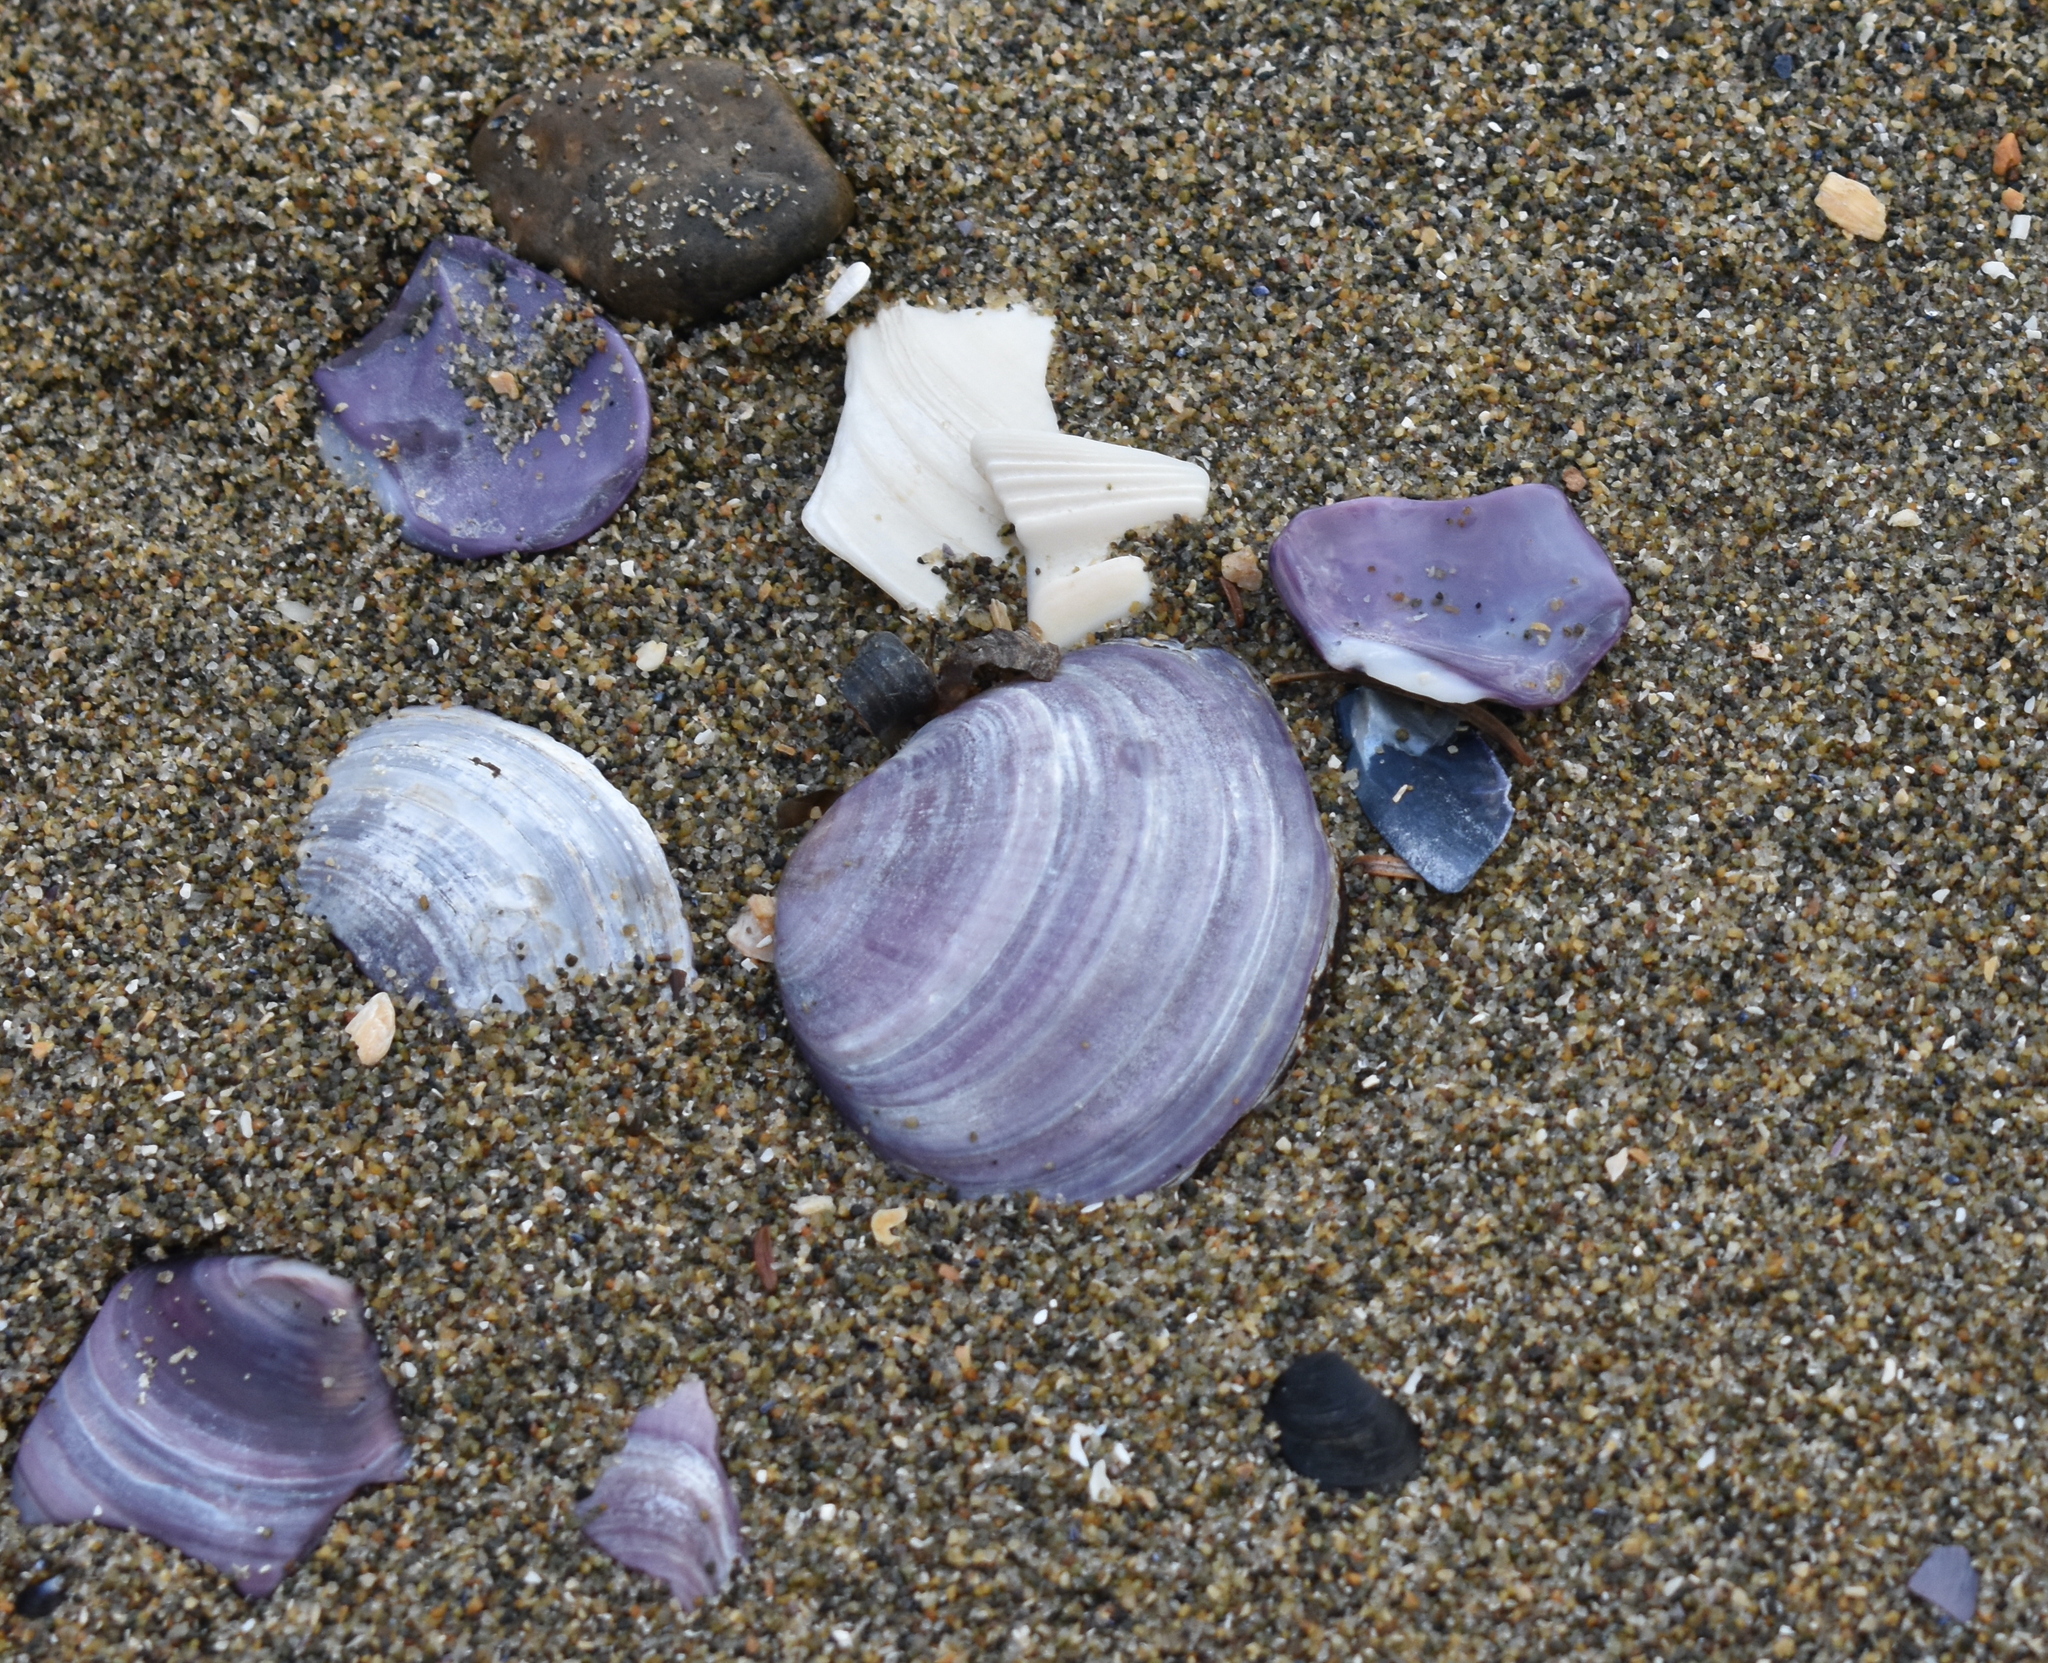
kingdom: Animalia
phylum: Mollusca
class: Bivalvia
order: Cardiida
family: Psammobiidae
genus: Nuttallia
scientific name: Nuttallia obscurata
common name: Purple mahogany-clam
